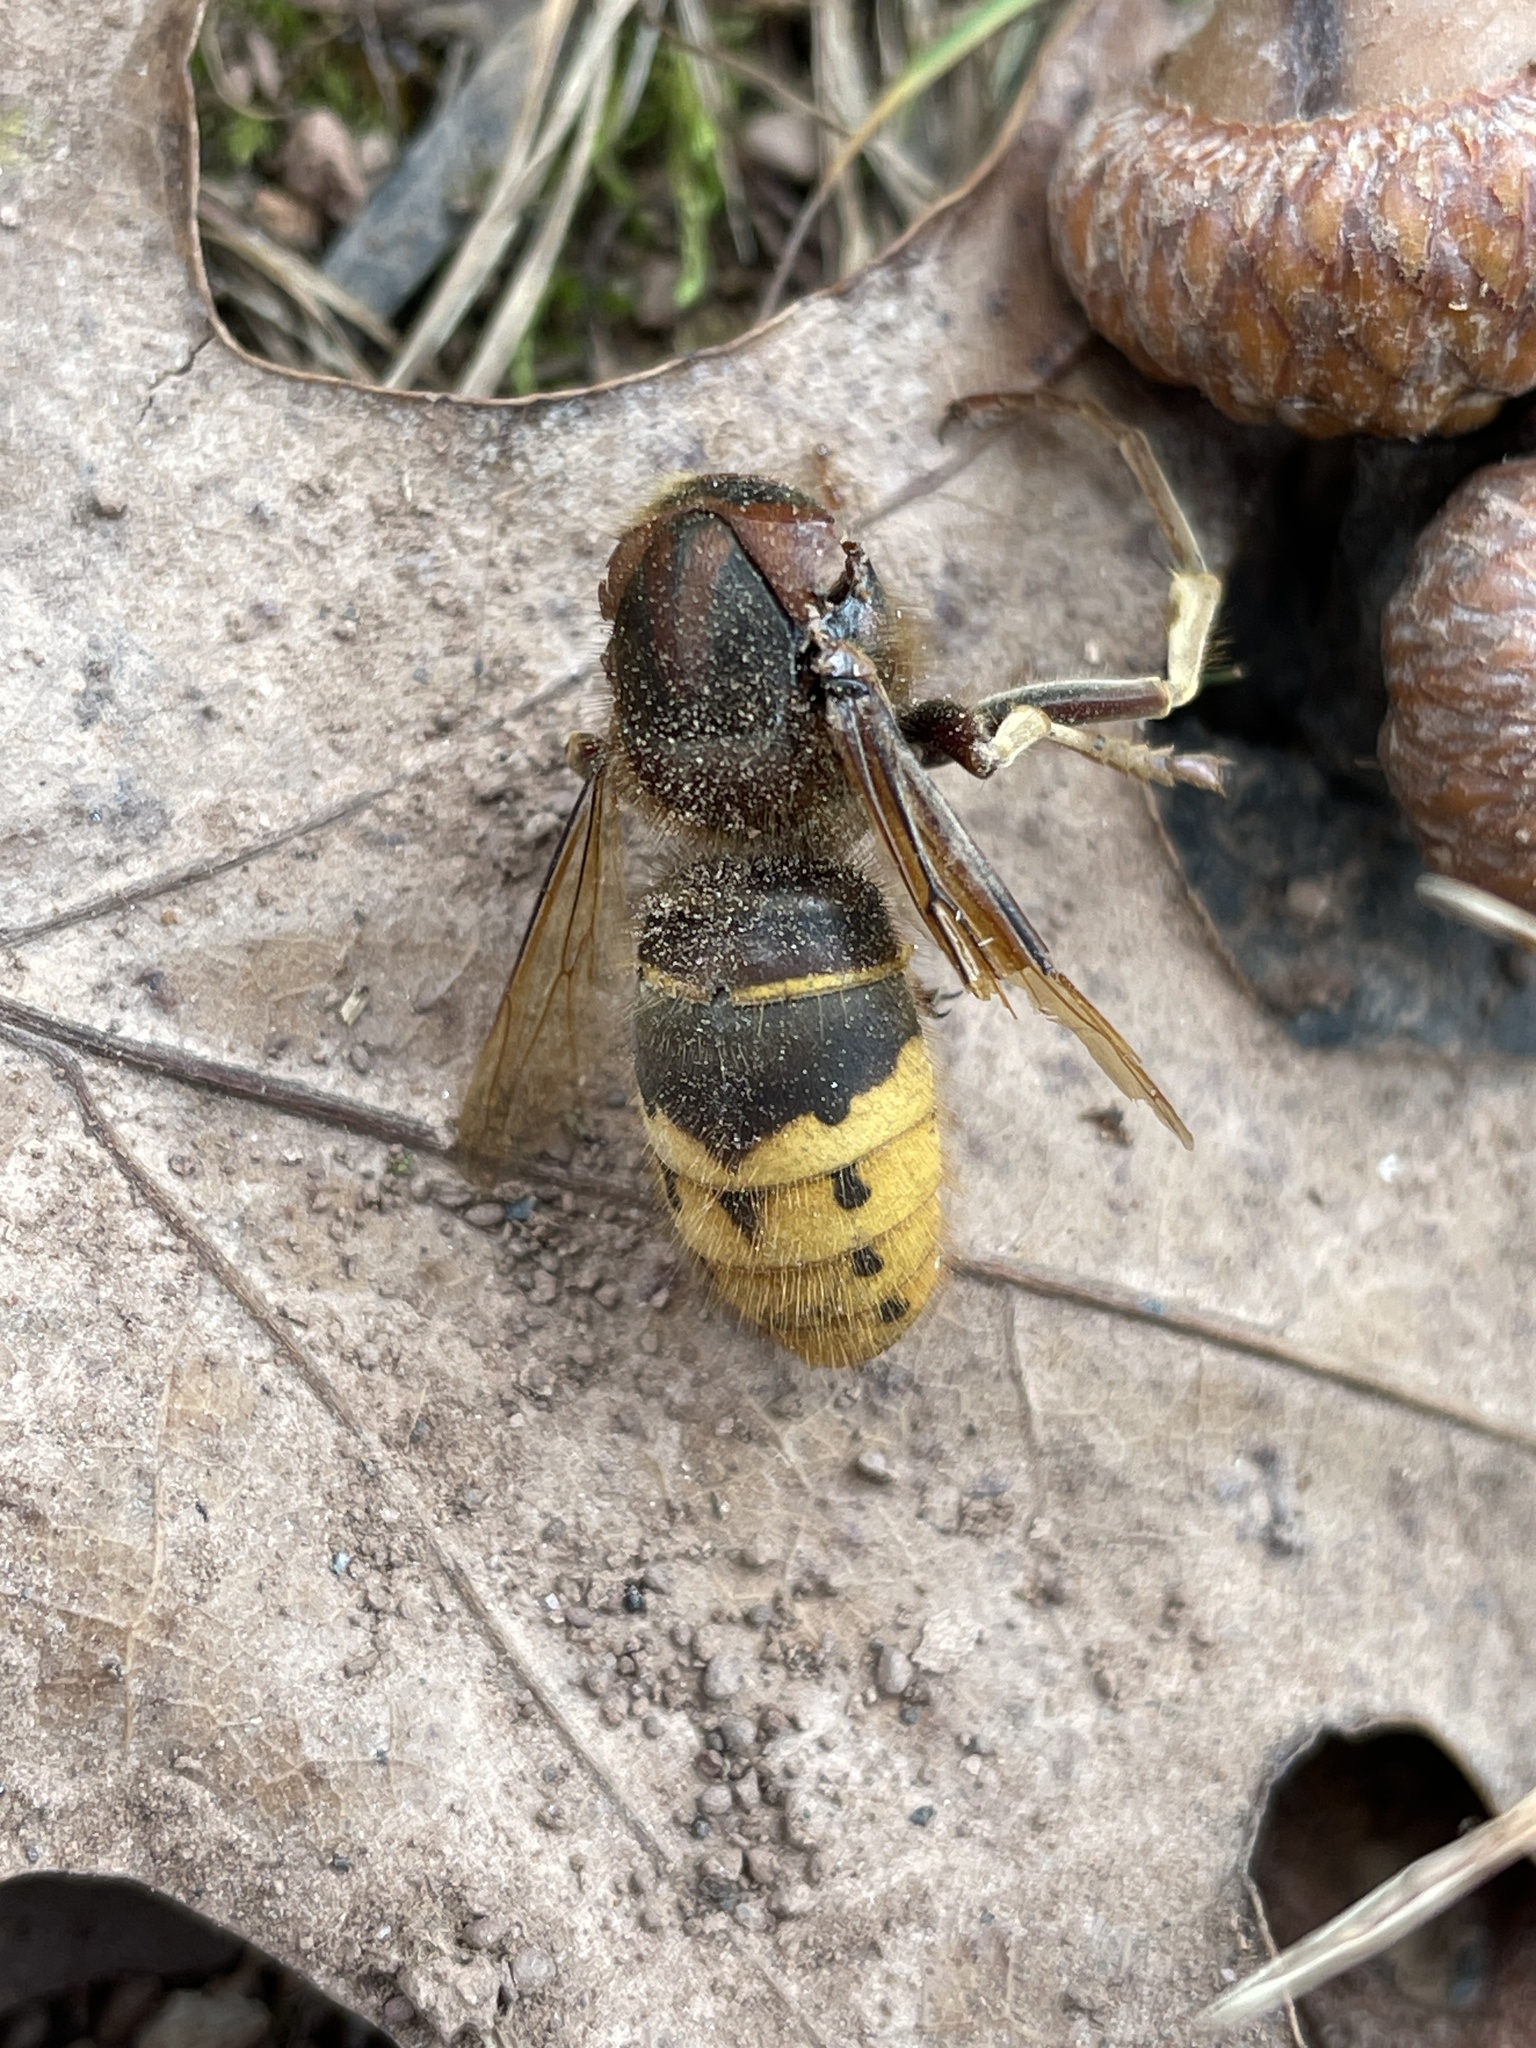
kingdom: Animalia
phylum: Arthropoda
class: Insecta
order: Hymenoptera
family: Vespidae
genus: Vespa
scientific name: Vespa crabro
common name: Hornet
